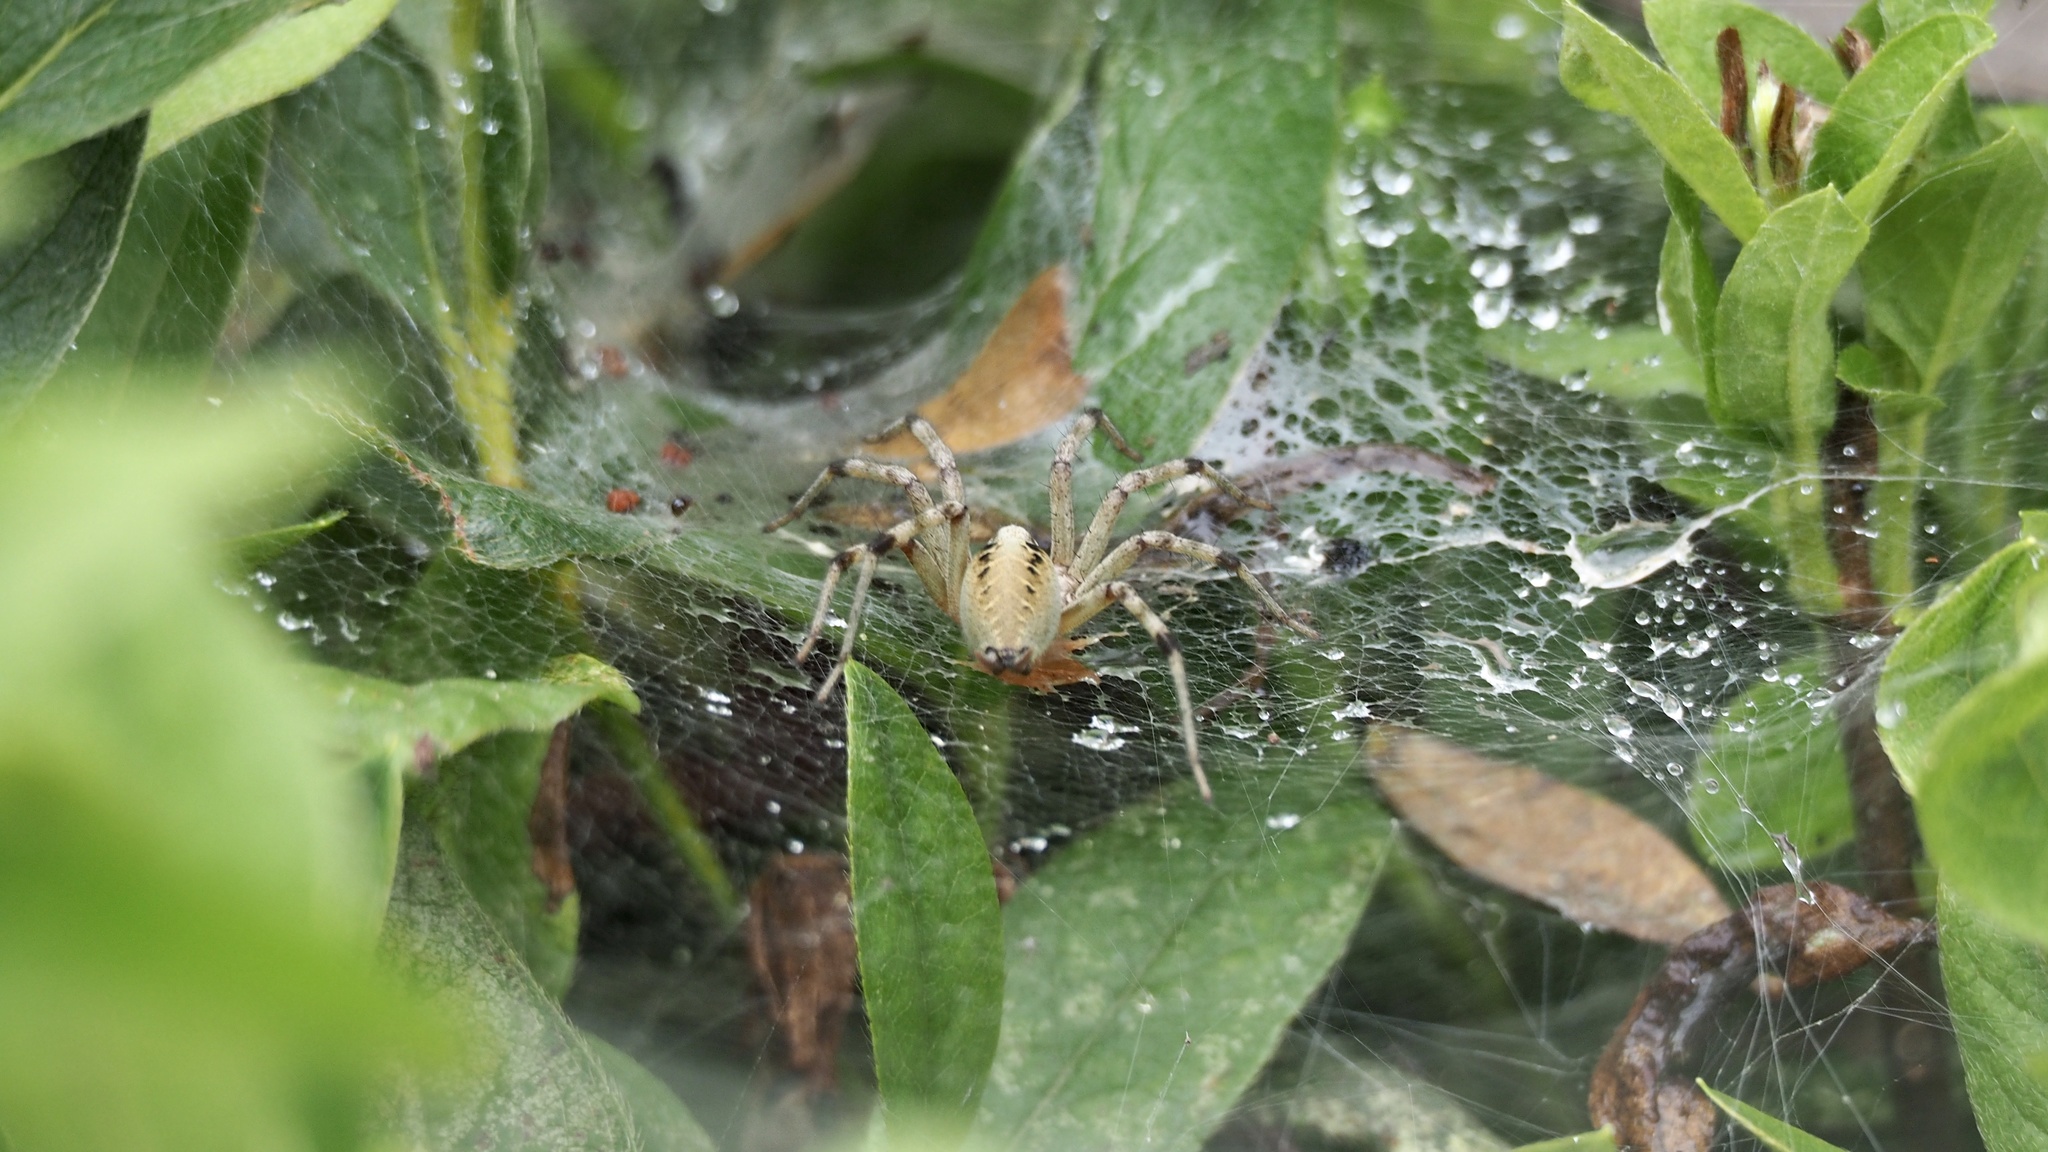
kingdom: Animalia
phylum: Arthropoda
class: Arachnida
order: Araneae
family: Agelenidae
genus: Agelena
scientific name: Agelena silvatica
